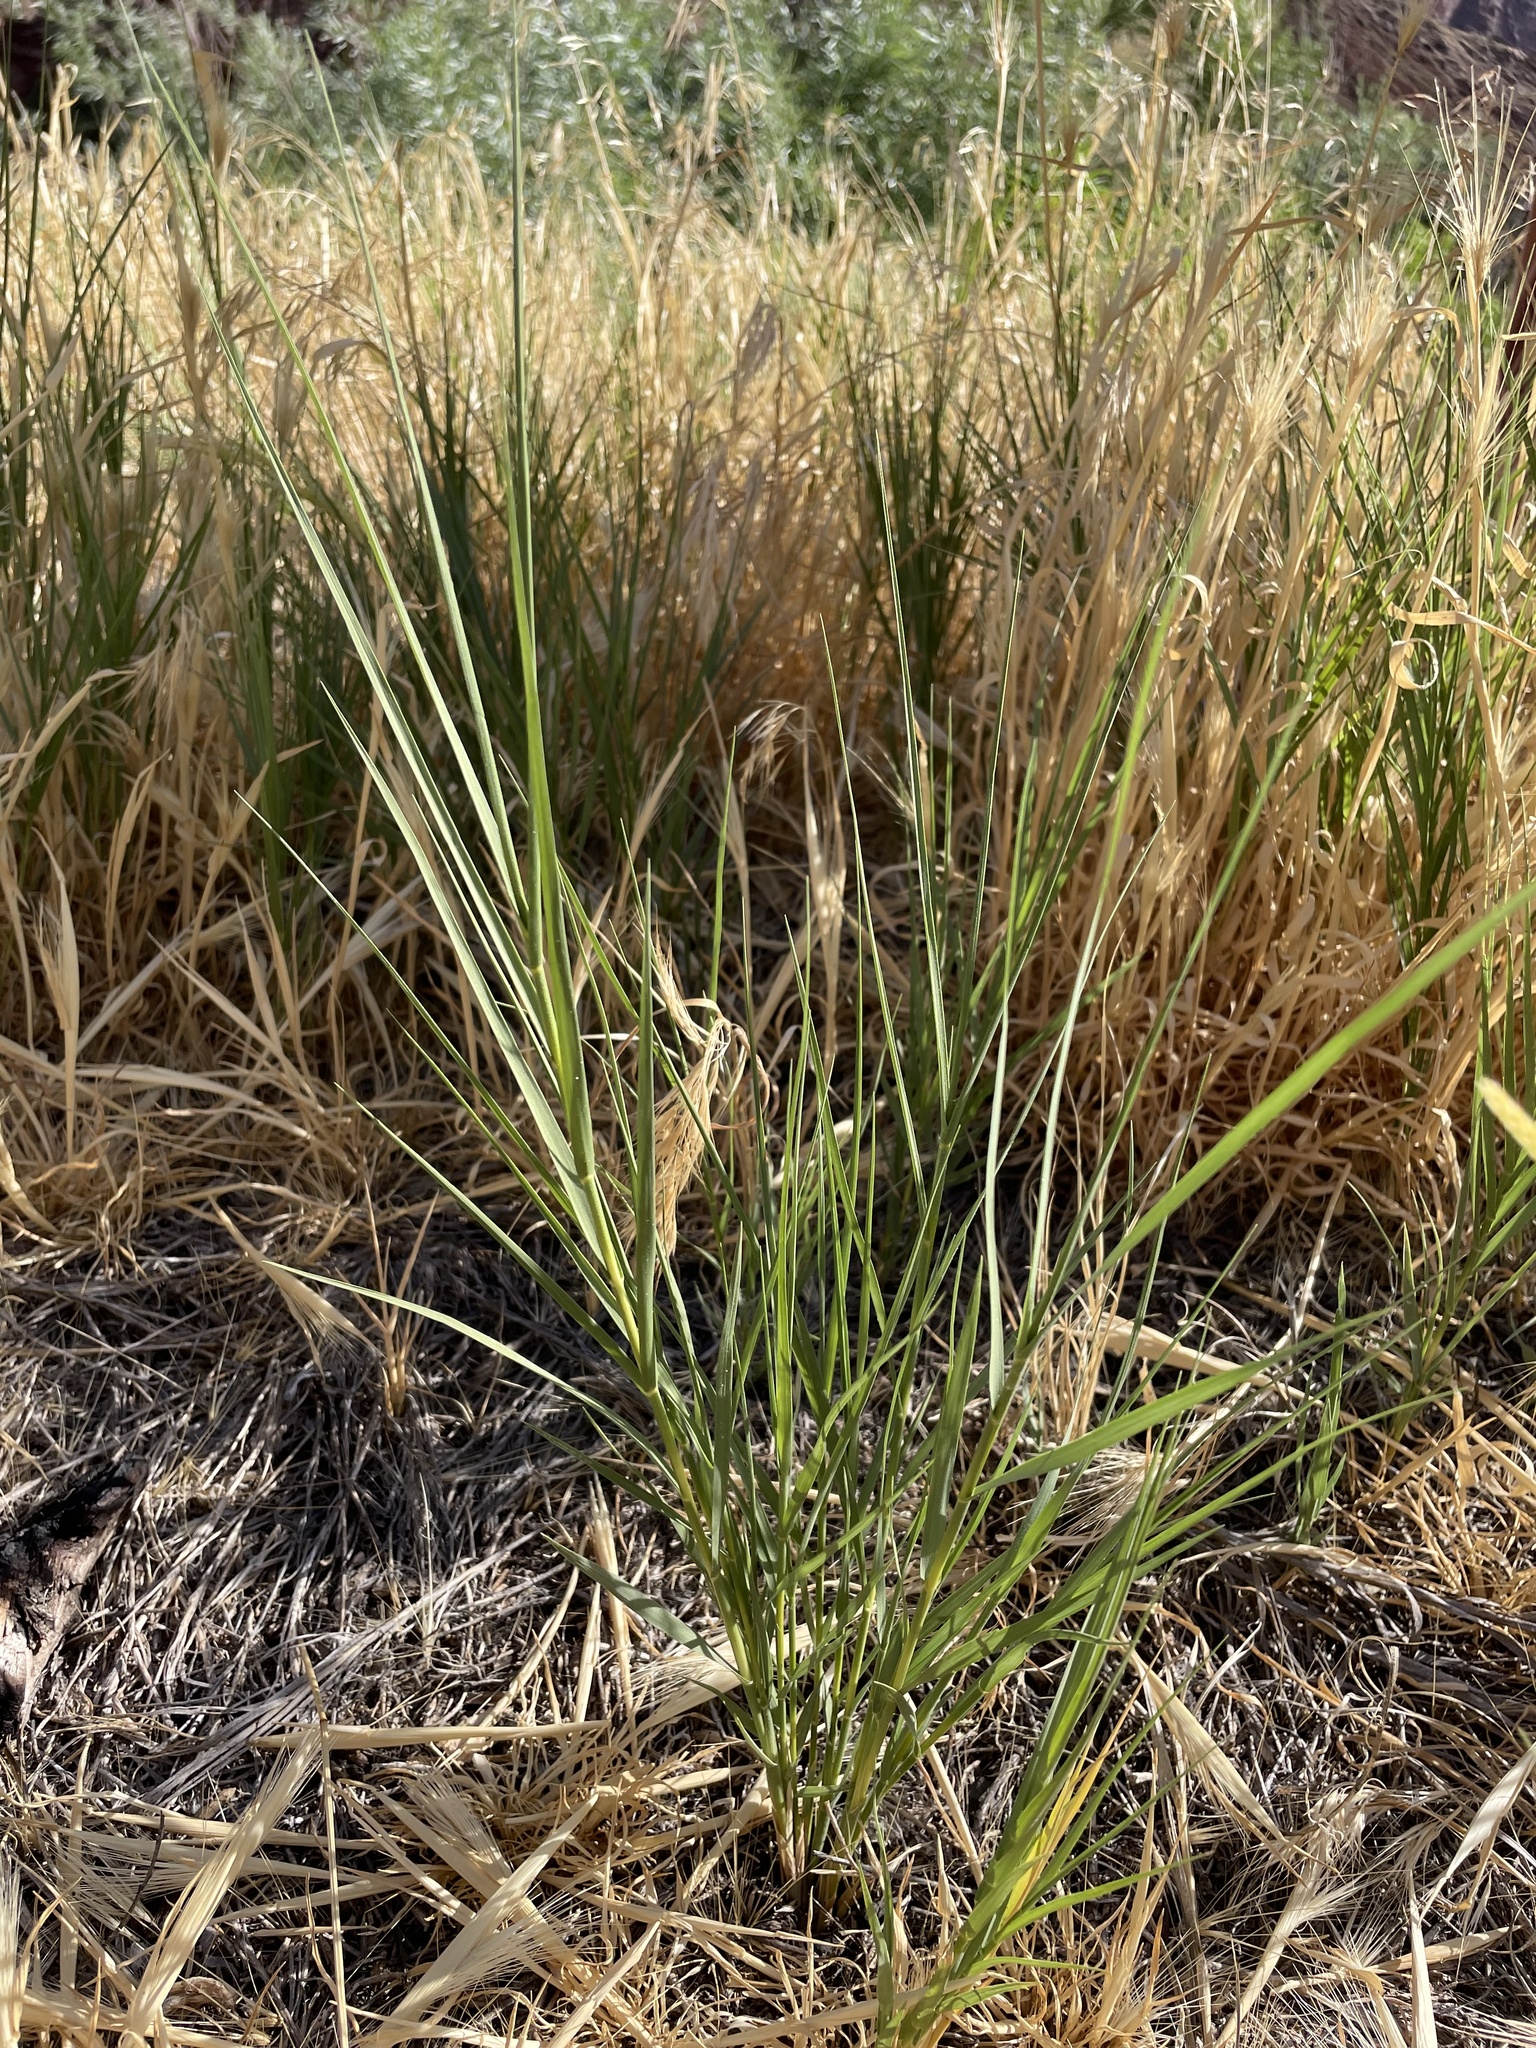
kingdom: Plantae
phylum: Tracheophyta
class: Liliopsida
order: Poales
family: Poaceae
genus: Distichlis
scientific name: Distichlis spicata
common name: Saltgrass
